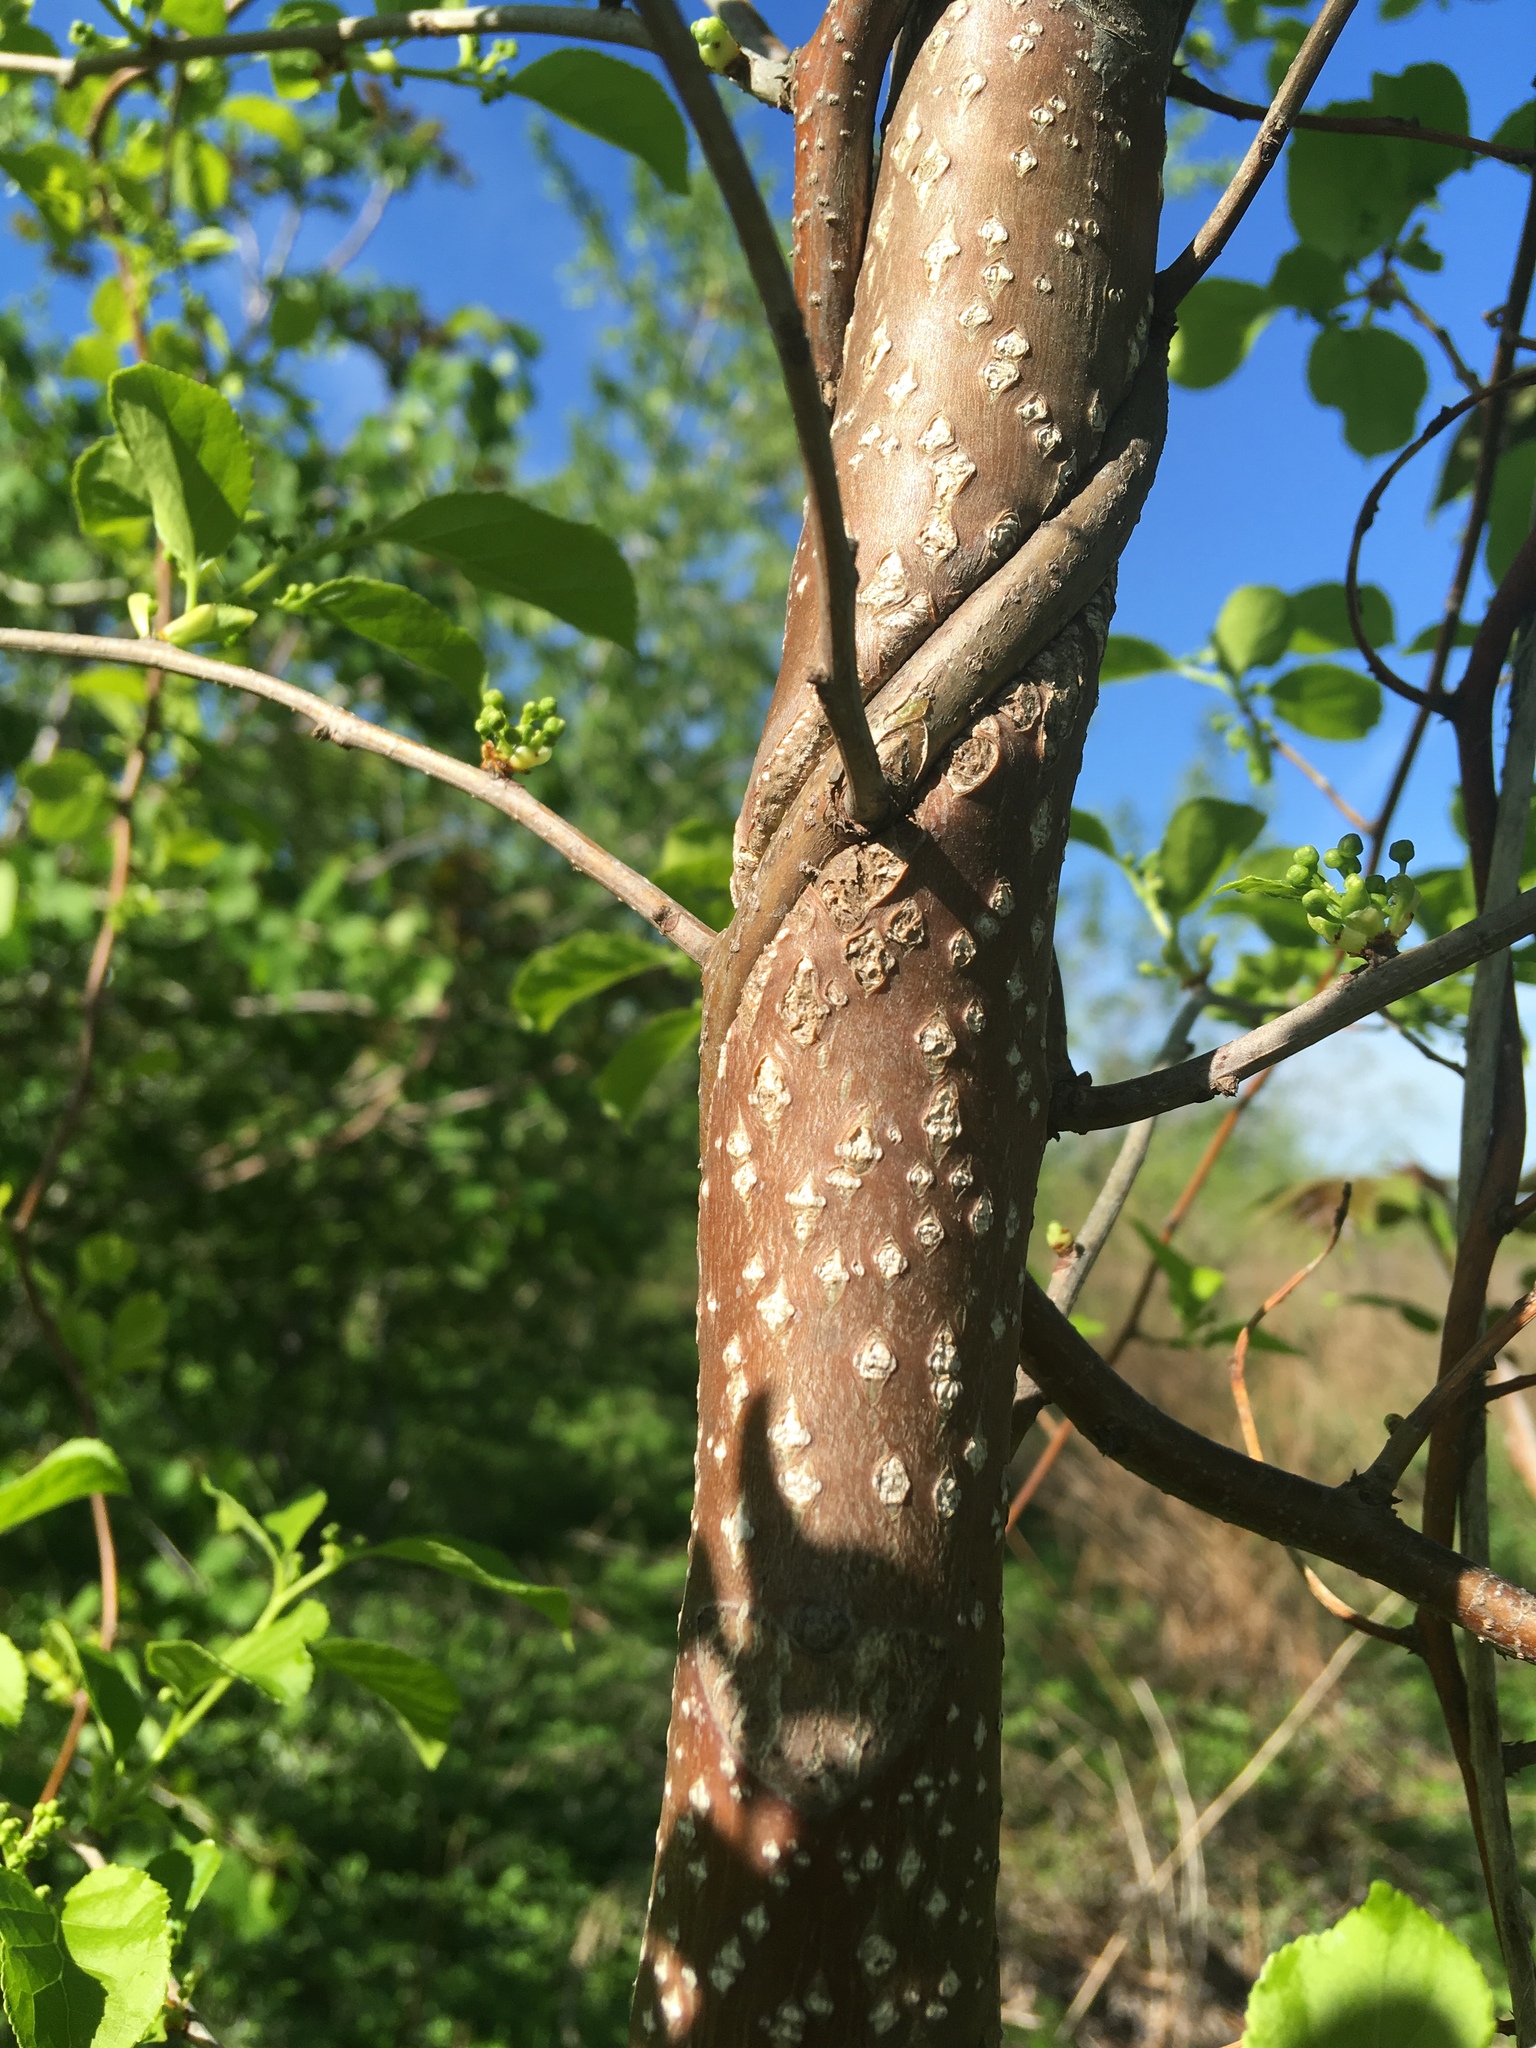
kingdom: Plantae
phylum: Tracheophyta
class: Magnoliopsida
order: Celastrales
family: Celastraceae
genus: Celastrus
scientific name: Celastrus orbiculatus
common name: Oriental bittersweet
